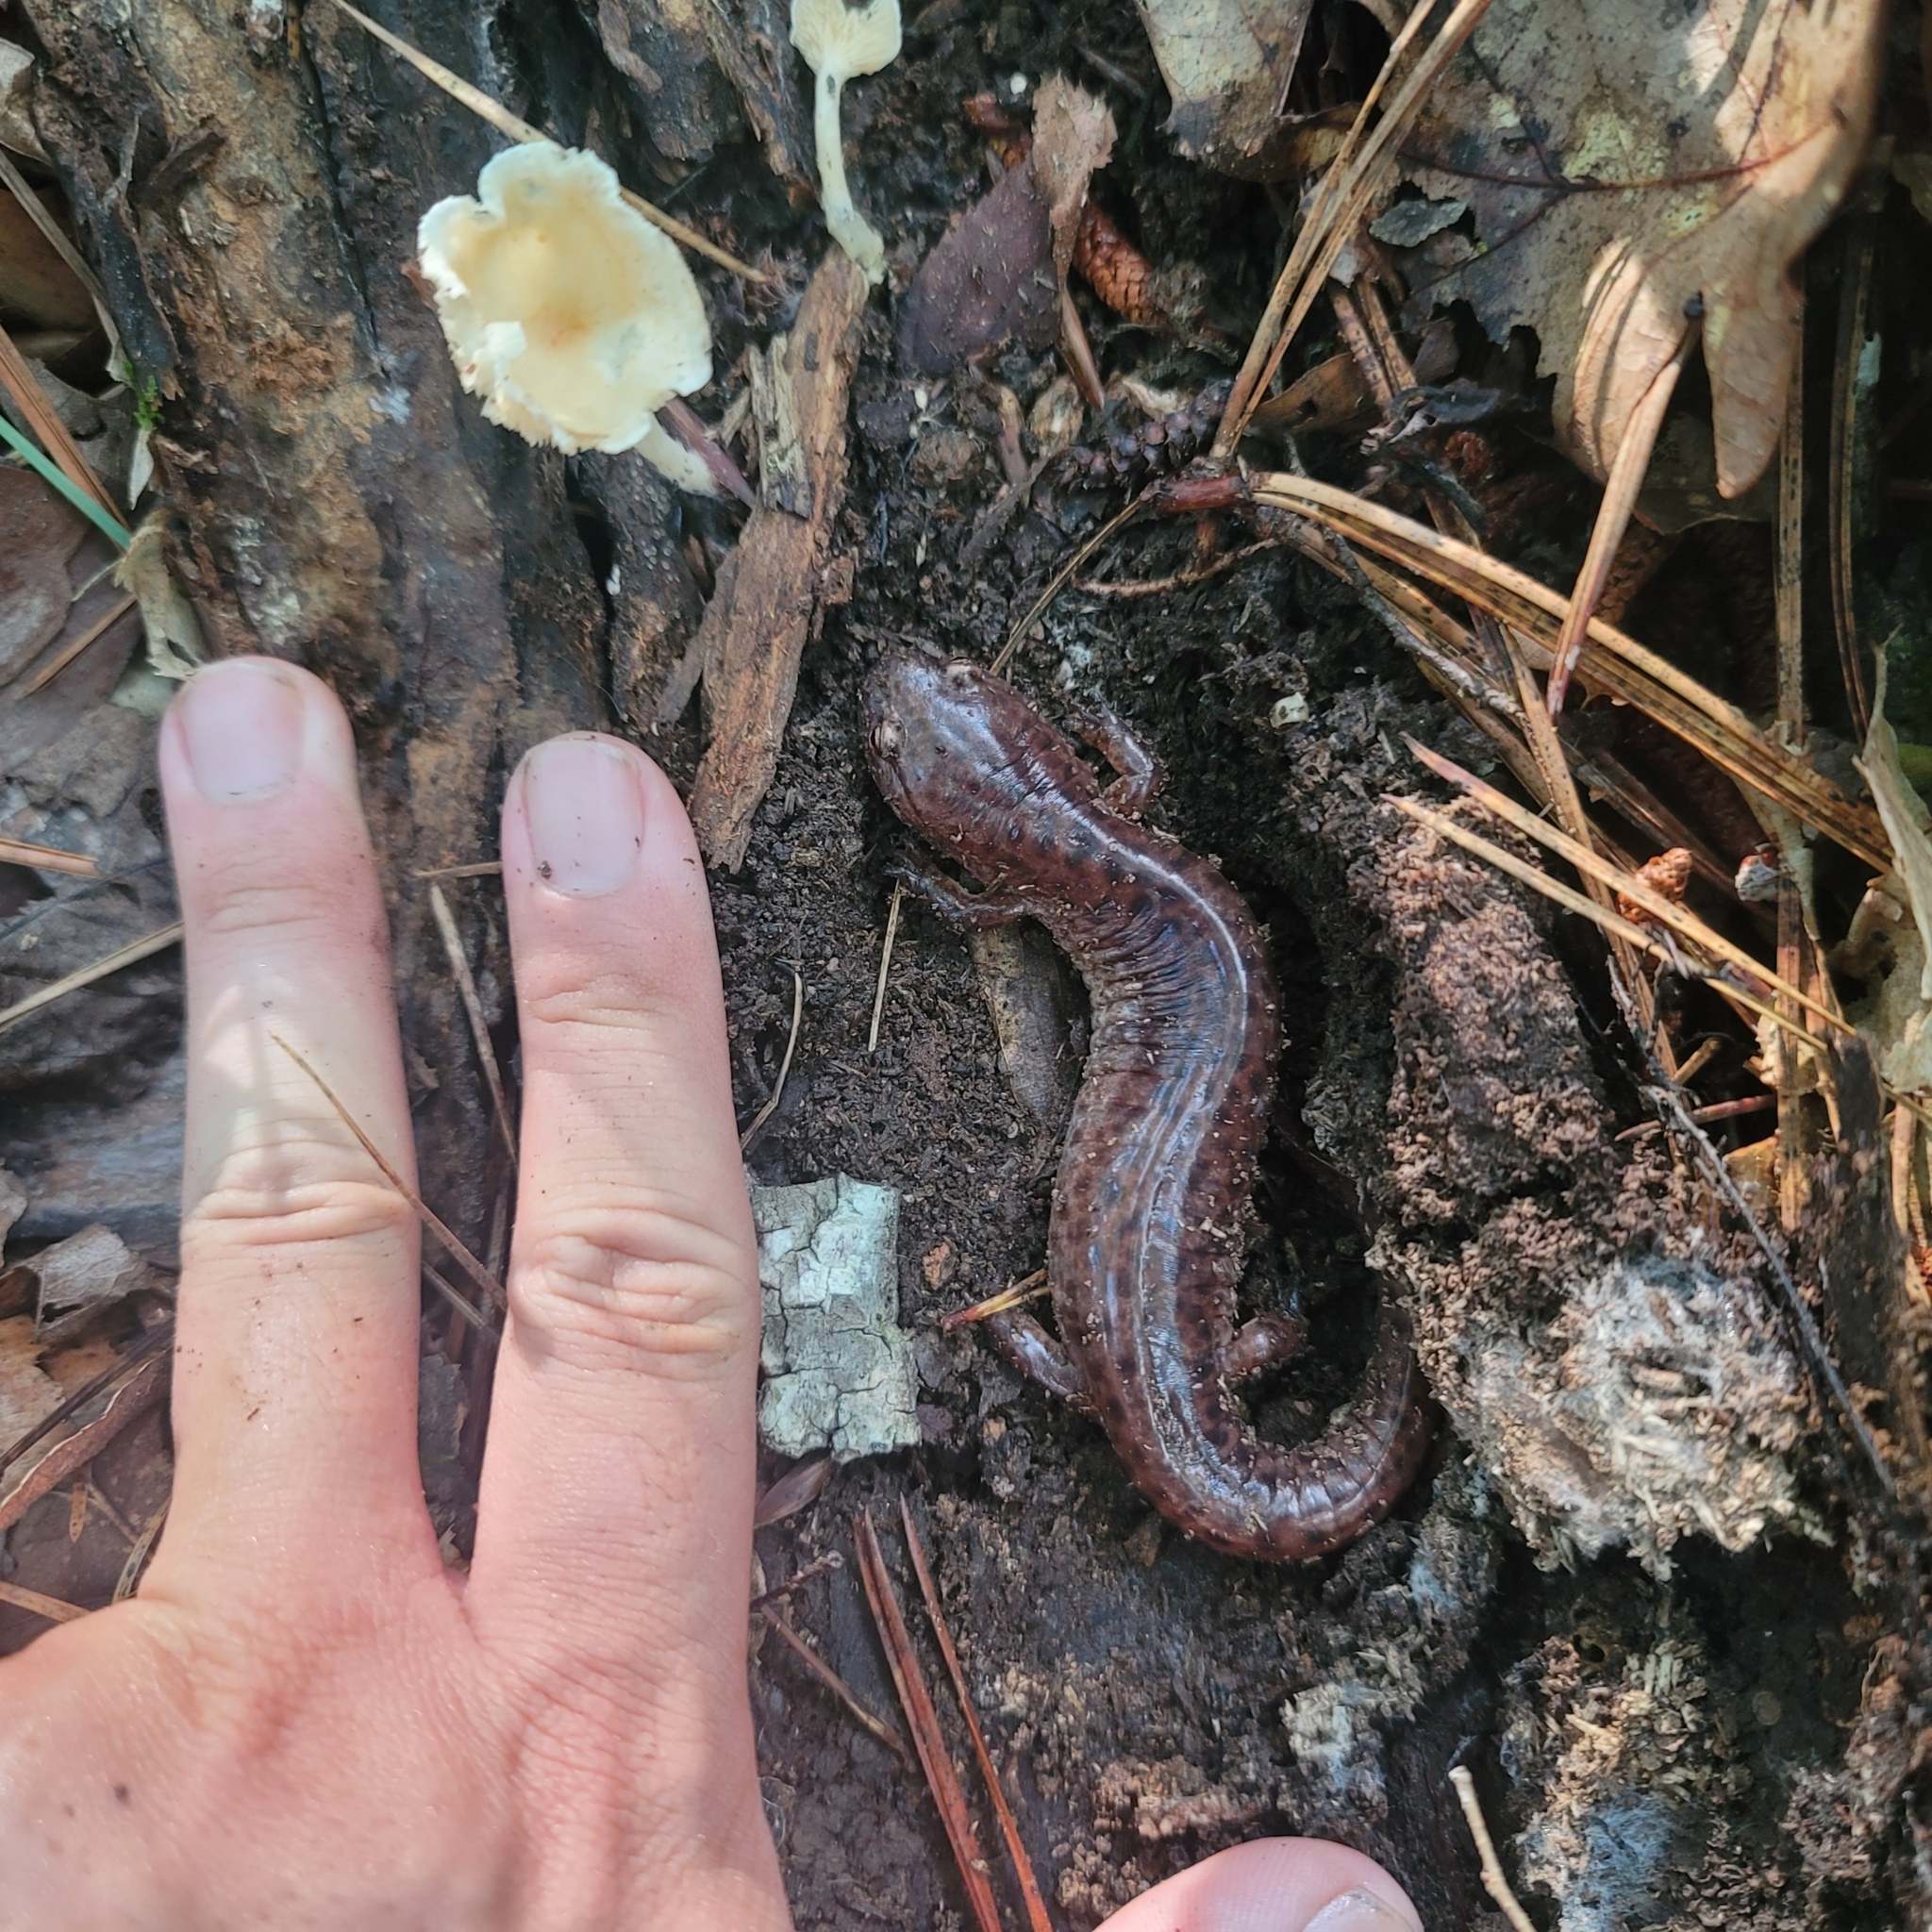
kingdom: Animalia
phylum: Chordata
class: Amphibia
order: Caudata
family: Plethodontidae
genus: Pseudotriton
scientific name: Pseudotriton ruber
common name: Red salamander
